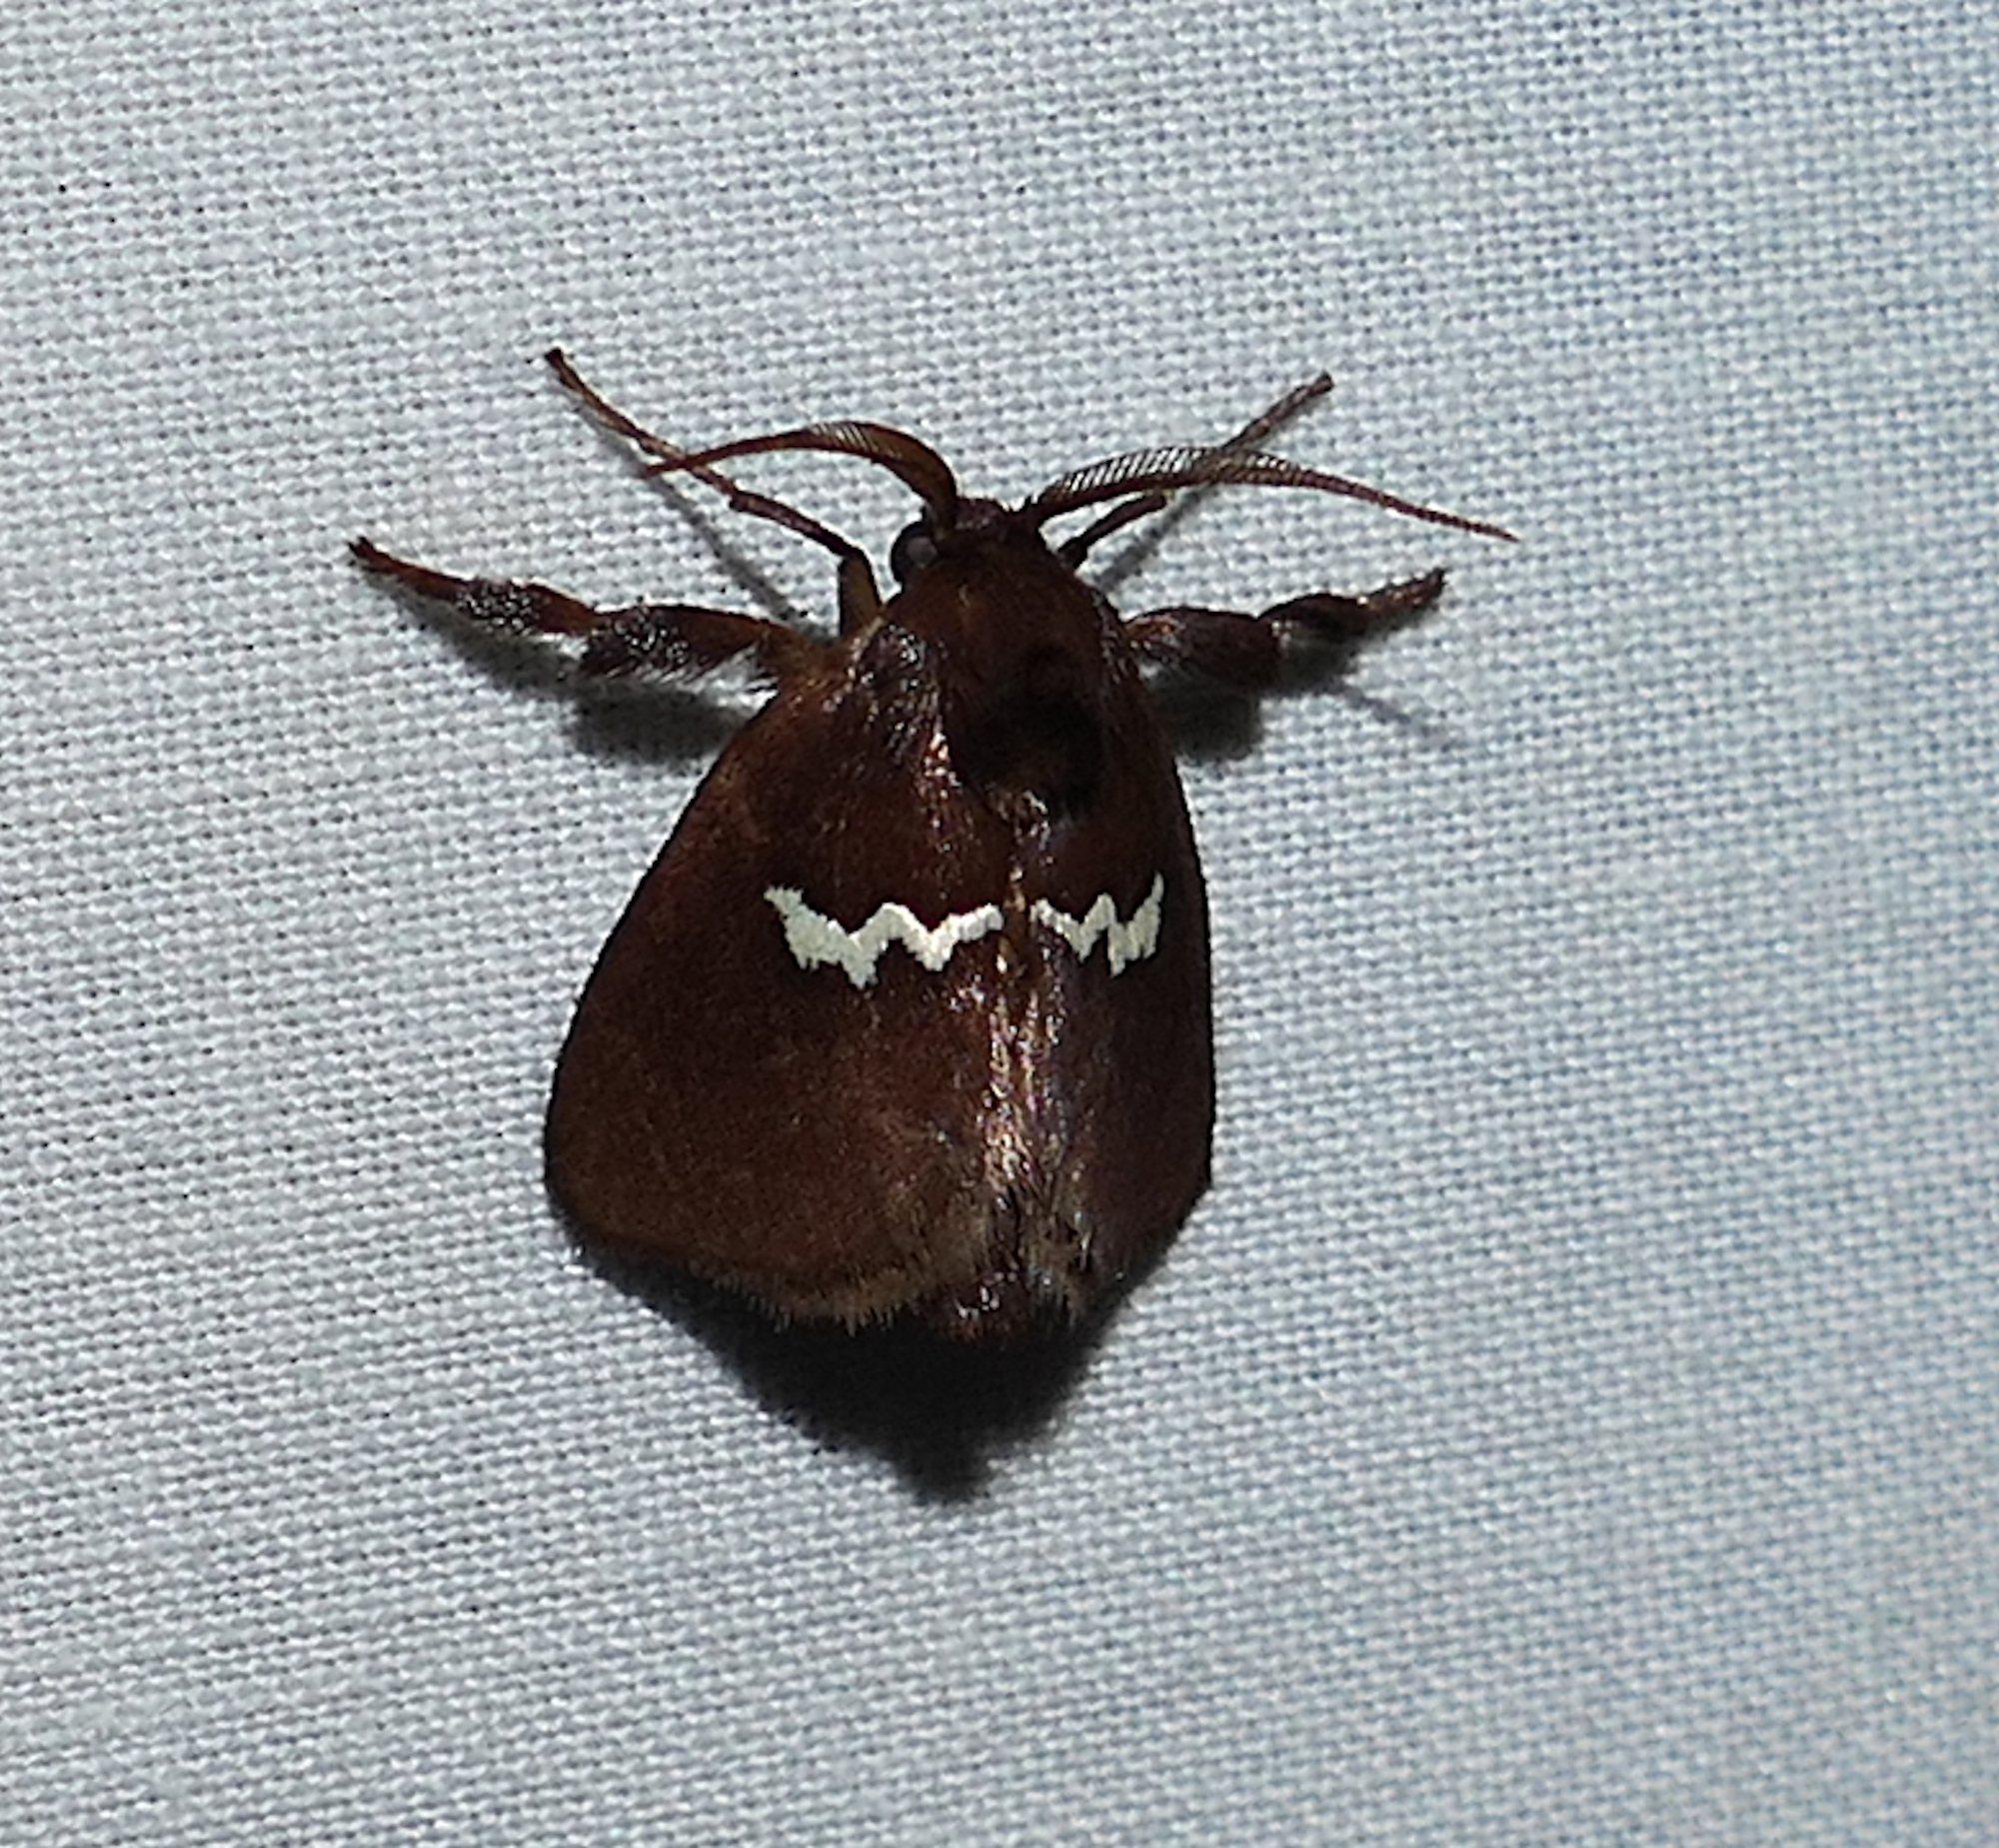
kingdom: Animalia
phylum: Arthropoda
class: Insecta
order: Lepidoptera
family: Limacodidae
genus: Monoleuca
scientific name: Monoleuca semifascia
